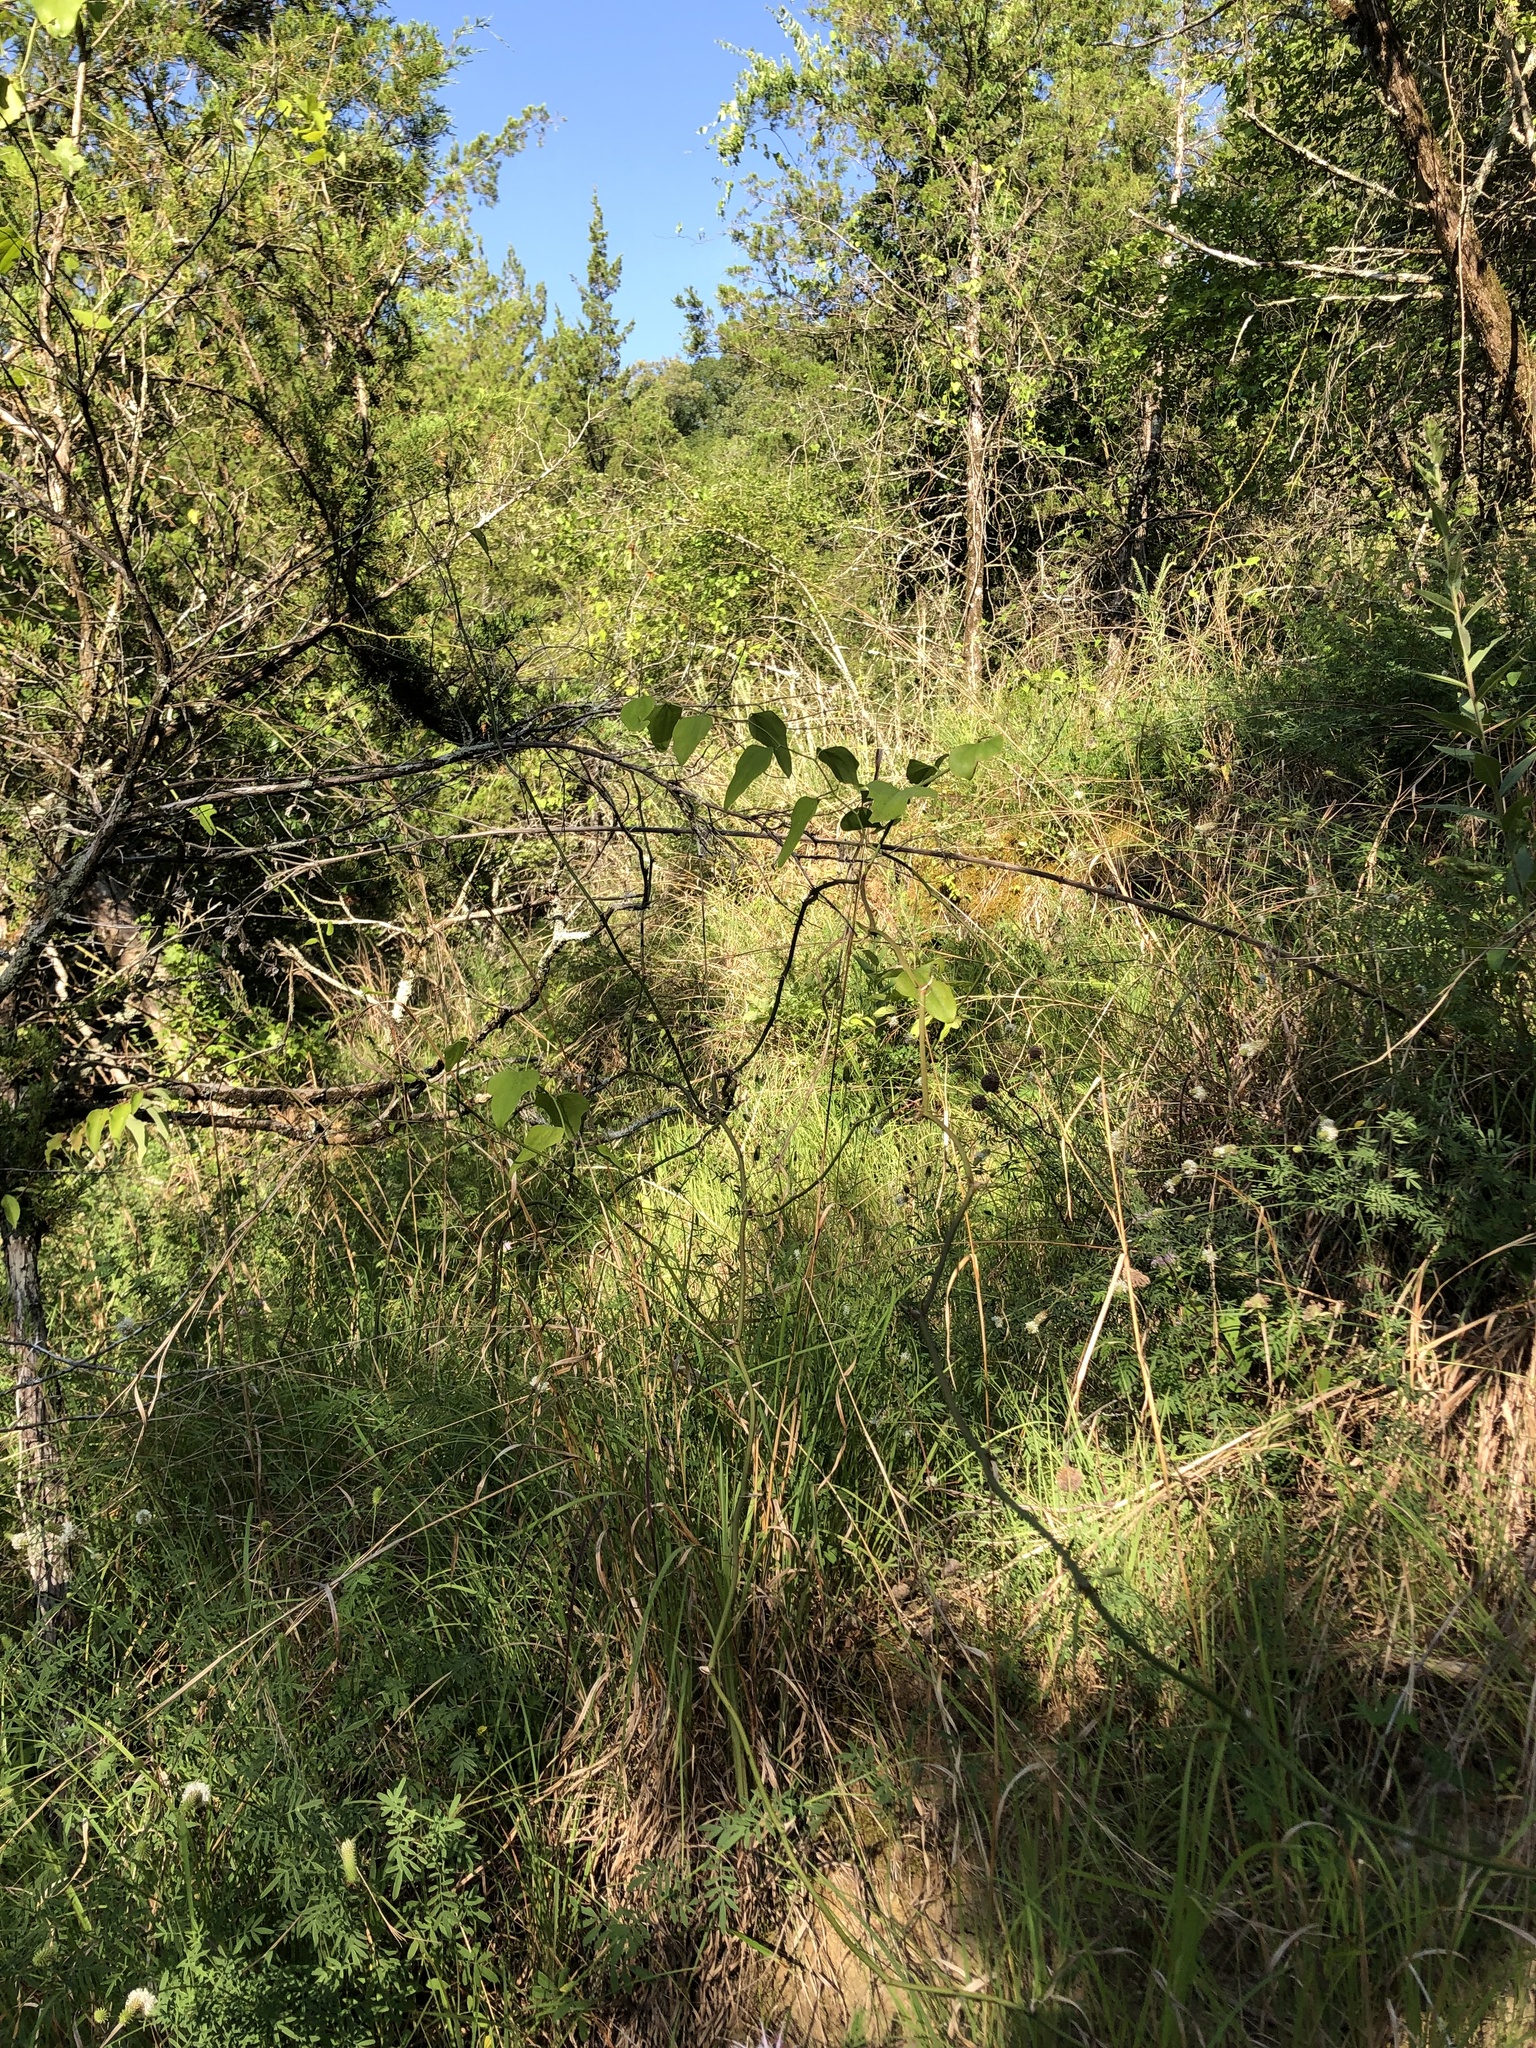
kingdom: Plantae
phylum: Tracheophyta
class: Magnoliopsida
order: Lamiales
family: Lamiaceae
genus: Monarda
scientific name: Monarda fistulosa
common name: Purple beebalm
